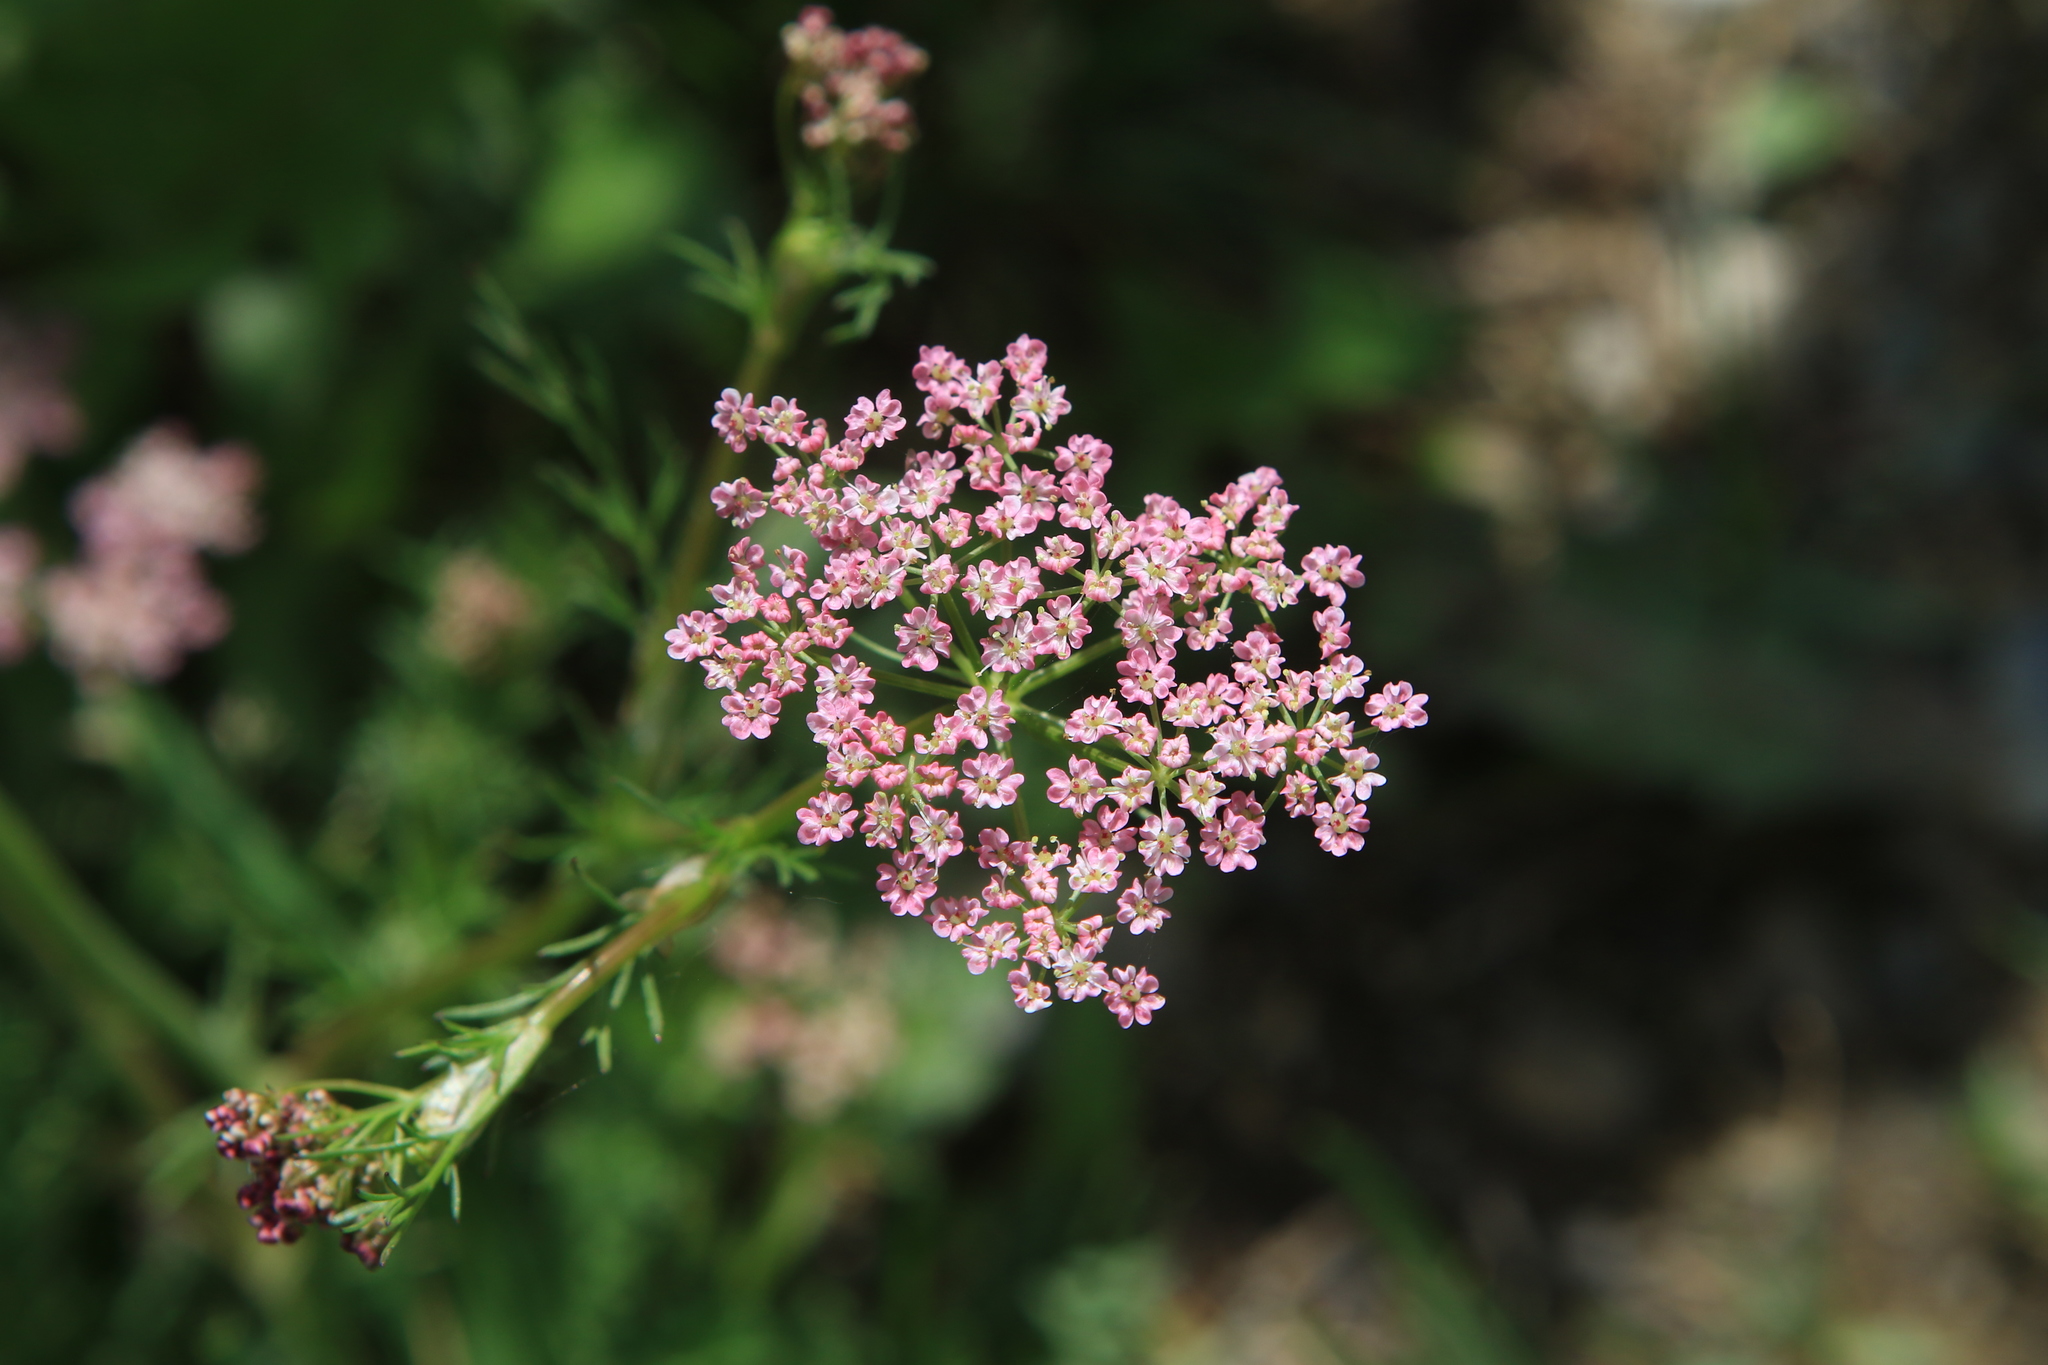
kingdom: Plantae
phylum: Tracheophyta
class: Magnoliopsida
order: Apiales
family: Apiaceae
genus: Carum
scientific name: Carum carvi
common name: Caraway
